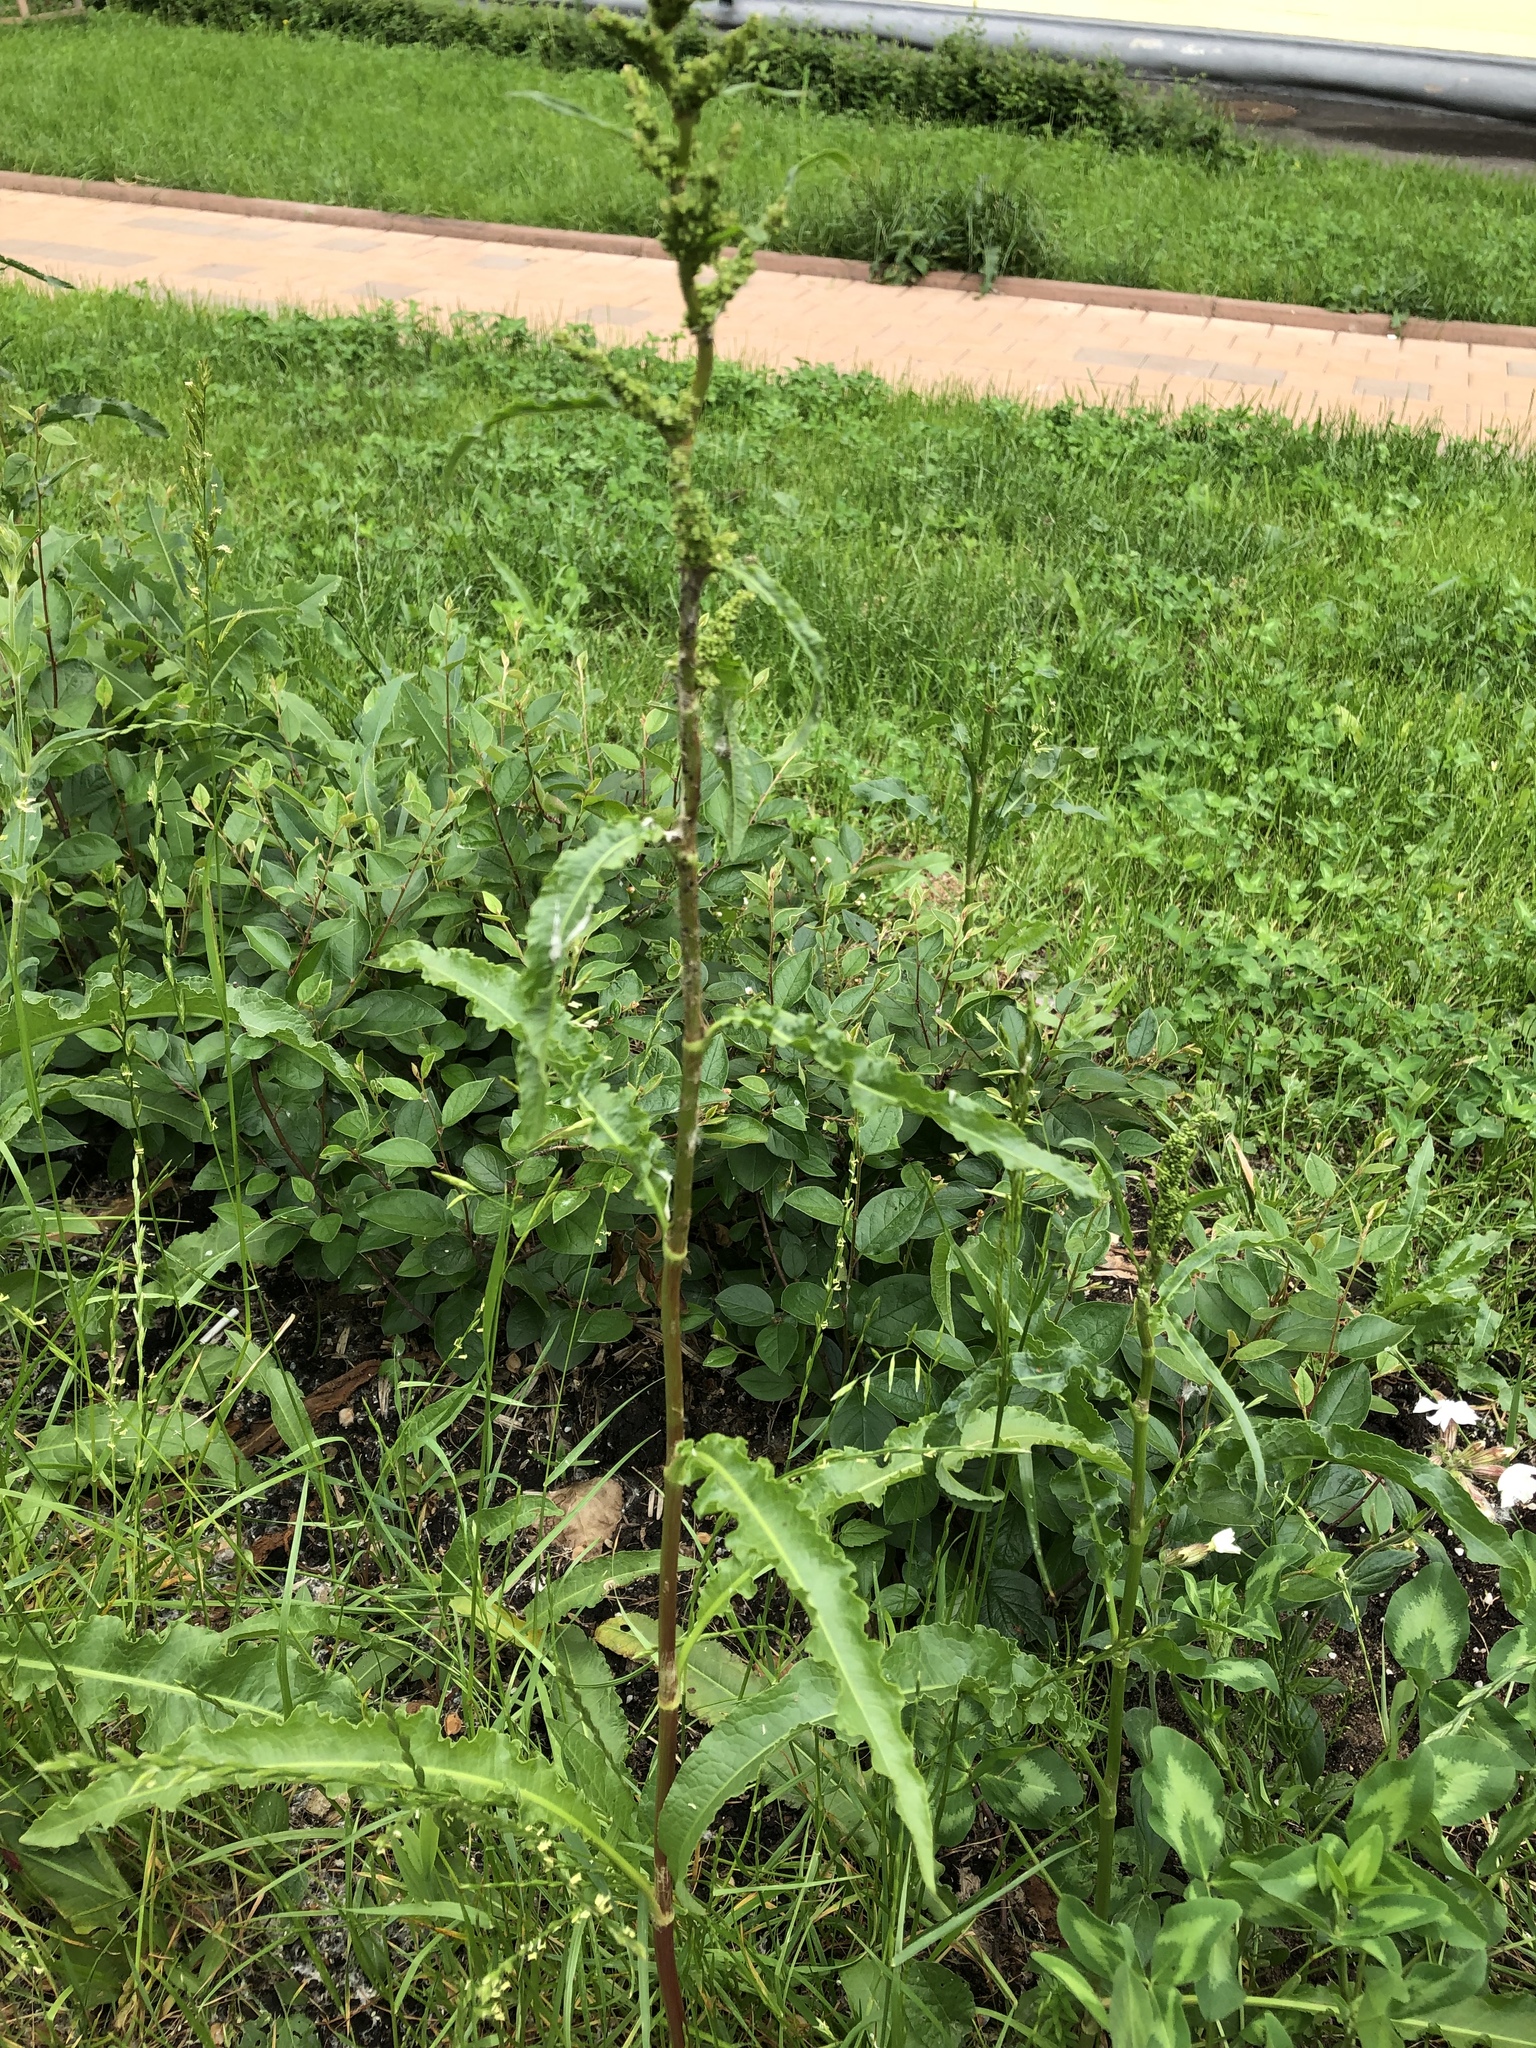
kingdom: Plantae
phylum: Tracheophyta
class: Magnoliopsida
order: Caryophyllales
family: Polygonaceae
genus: Rumex
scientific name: Rumex crispus
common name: Curled dock
